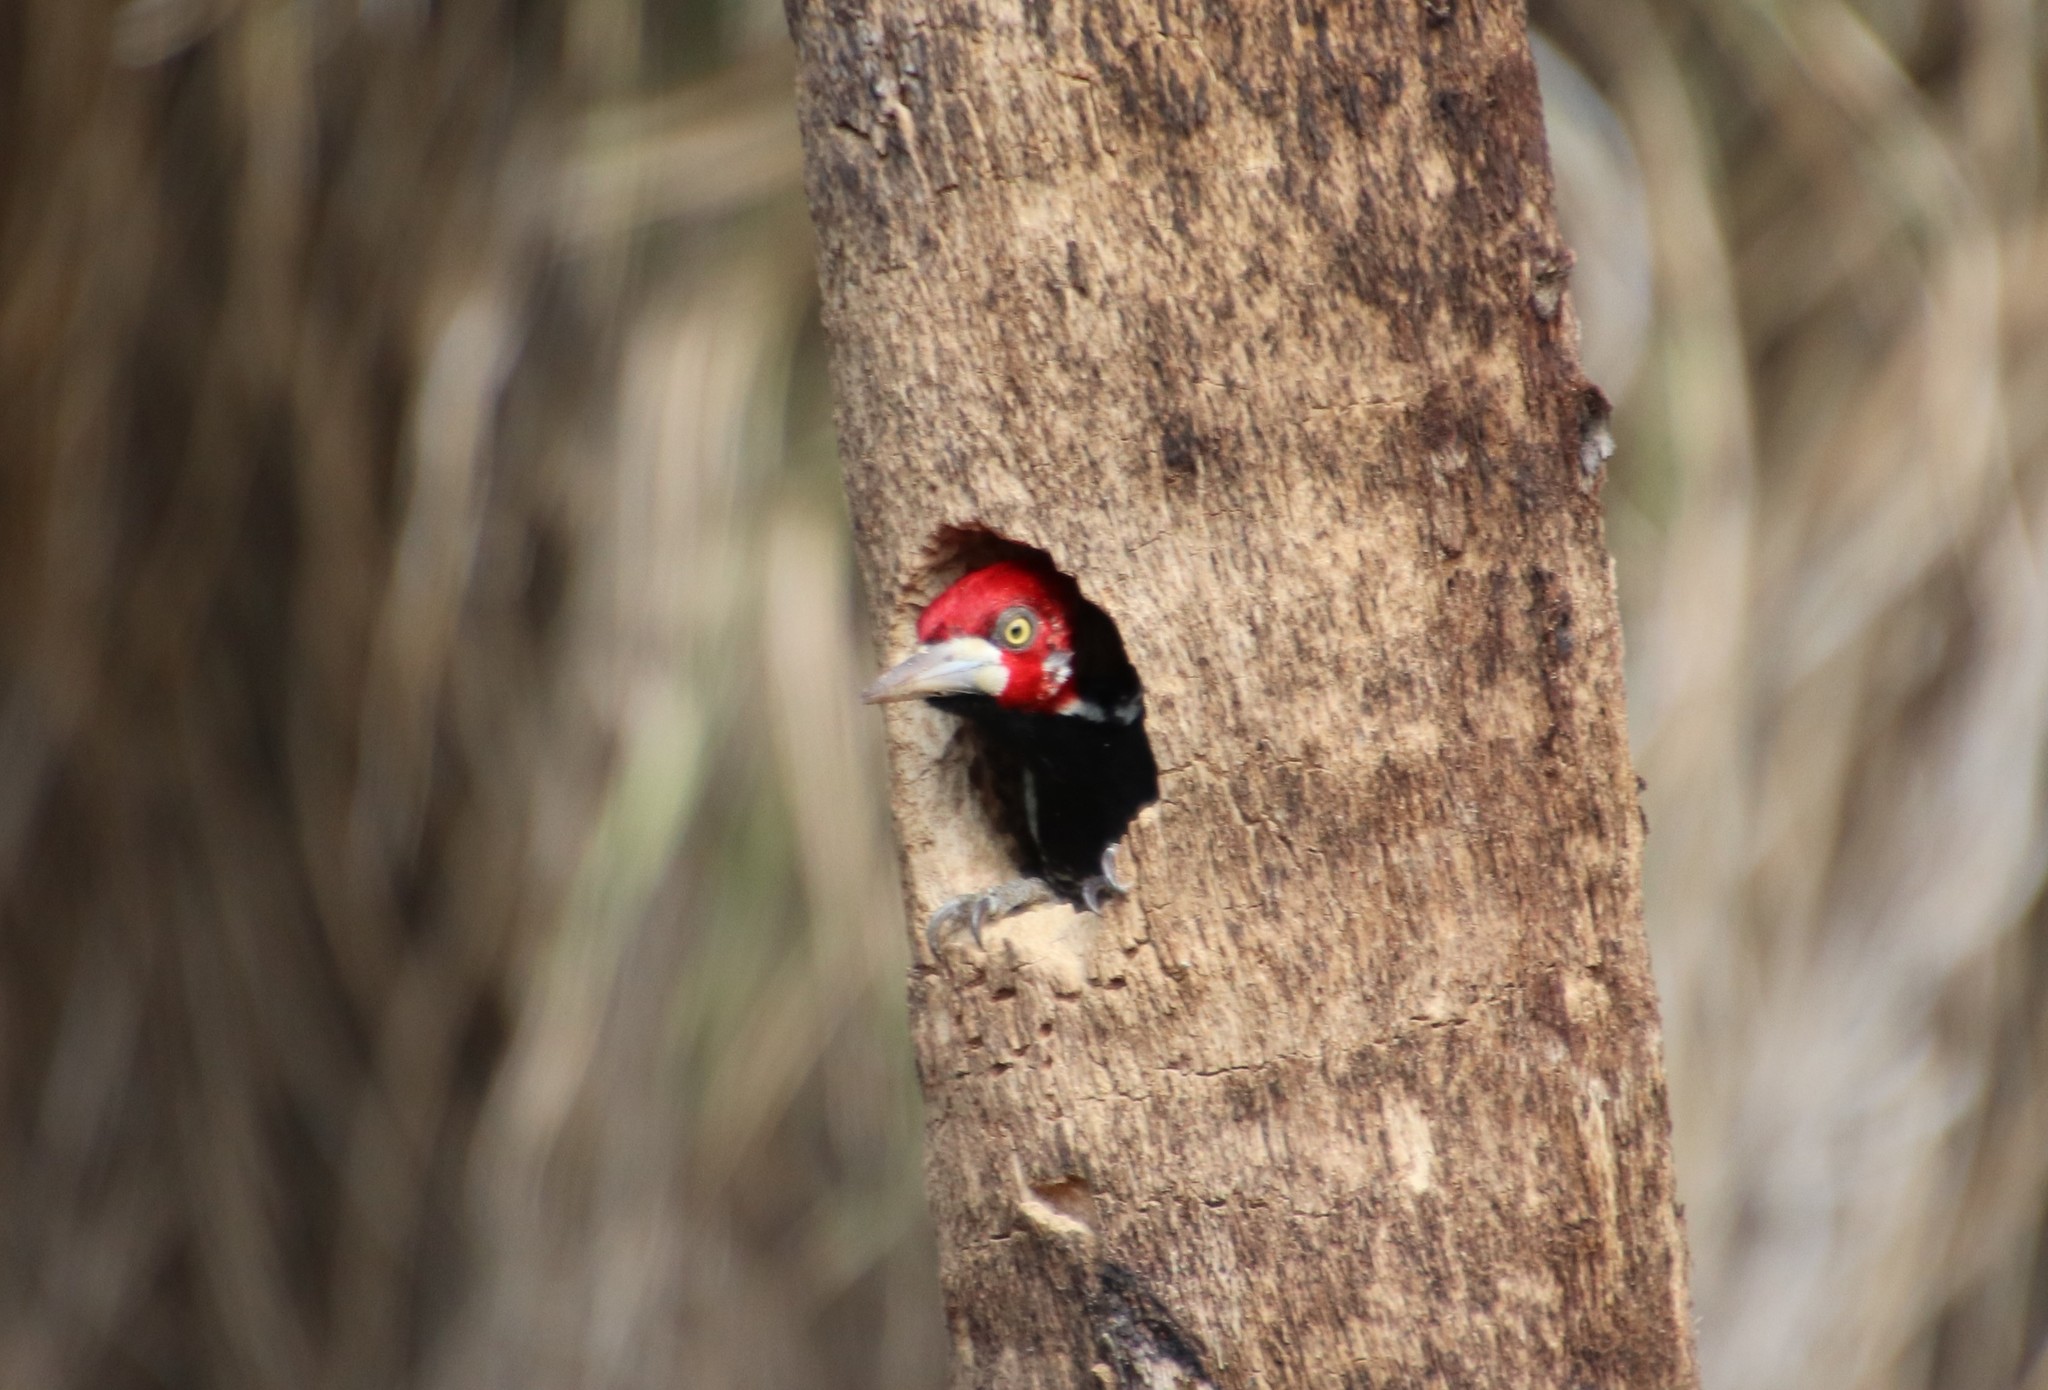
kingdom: Animalia
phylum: Chordata
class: Aves
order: Piciformes
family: Picidae
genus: Campephilus
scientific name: Campephilus melanoleucos
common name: Crimson-crested woodpecker
